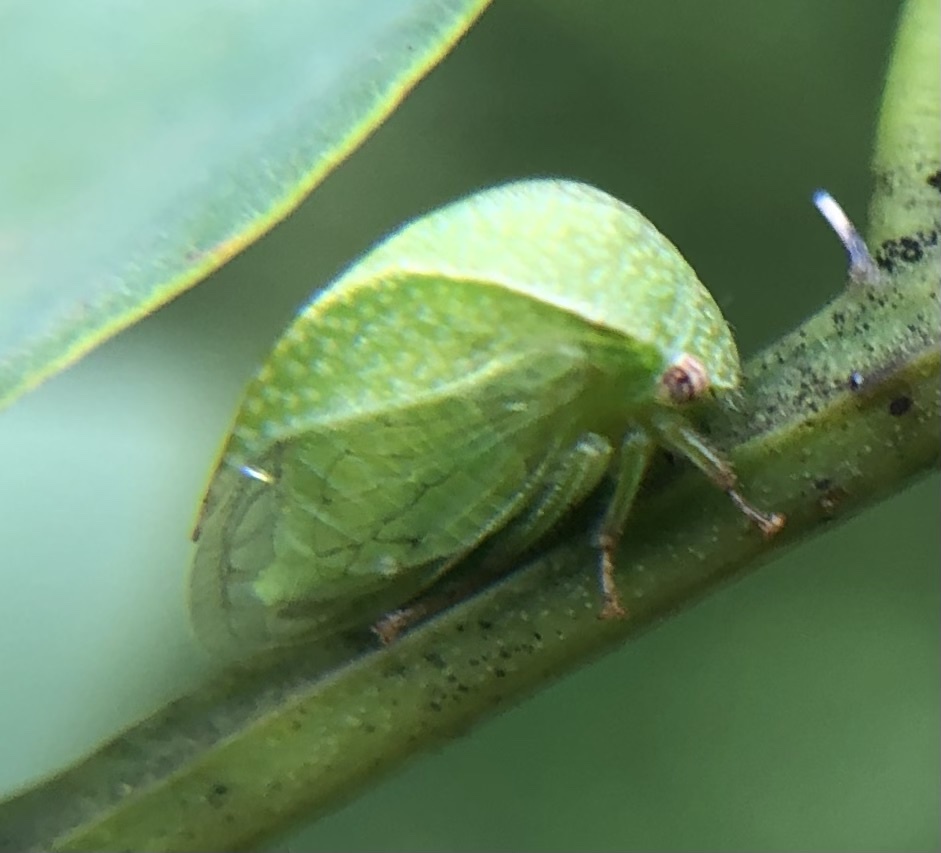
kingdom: Animalia
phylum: Arthropoda
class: Insecta
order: Hemiptera
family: Membracidae
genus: Spissistilus
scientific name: Spissistilus festina
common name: Membracid bug
